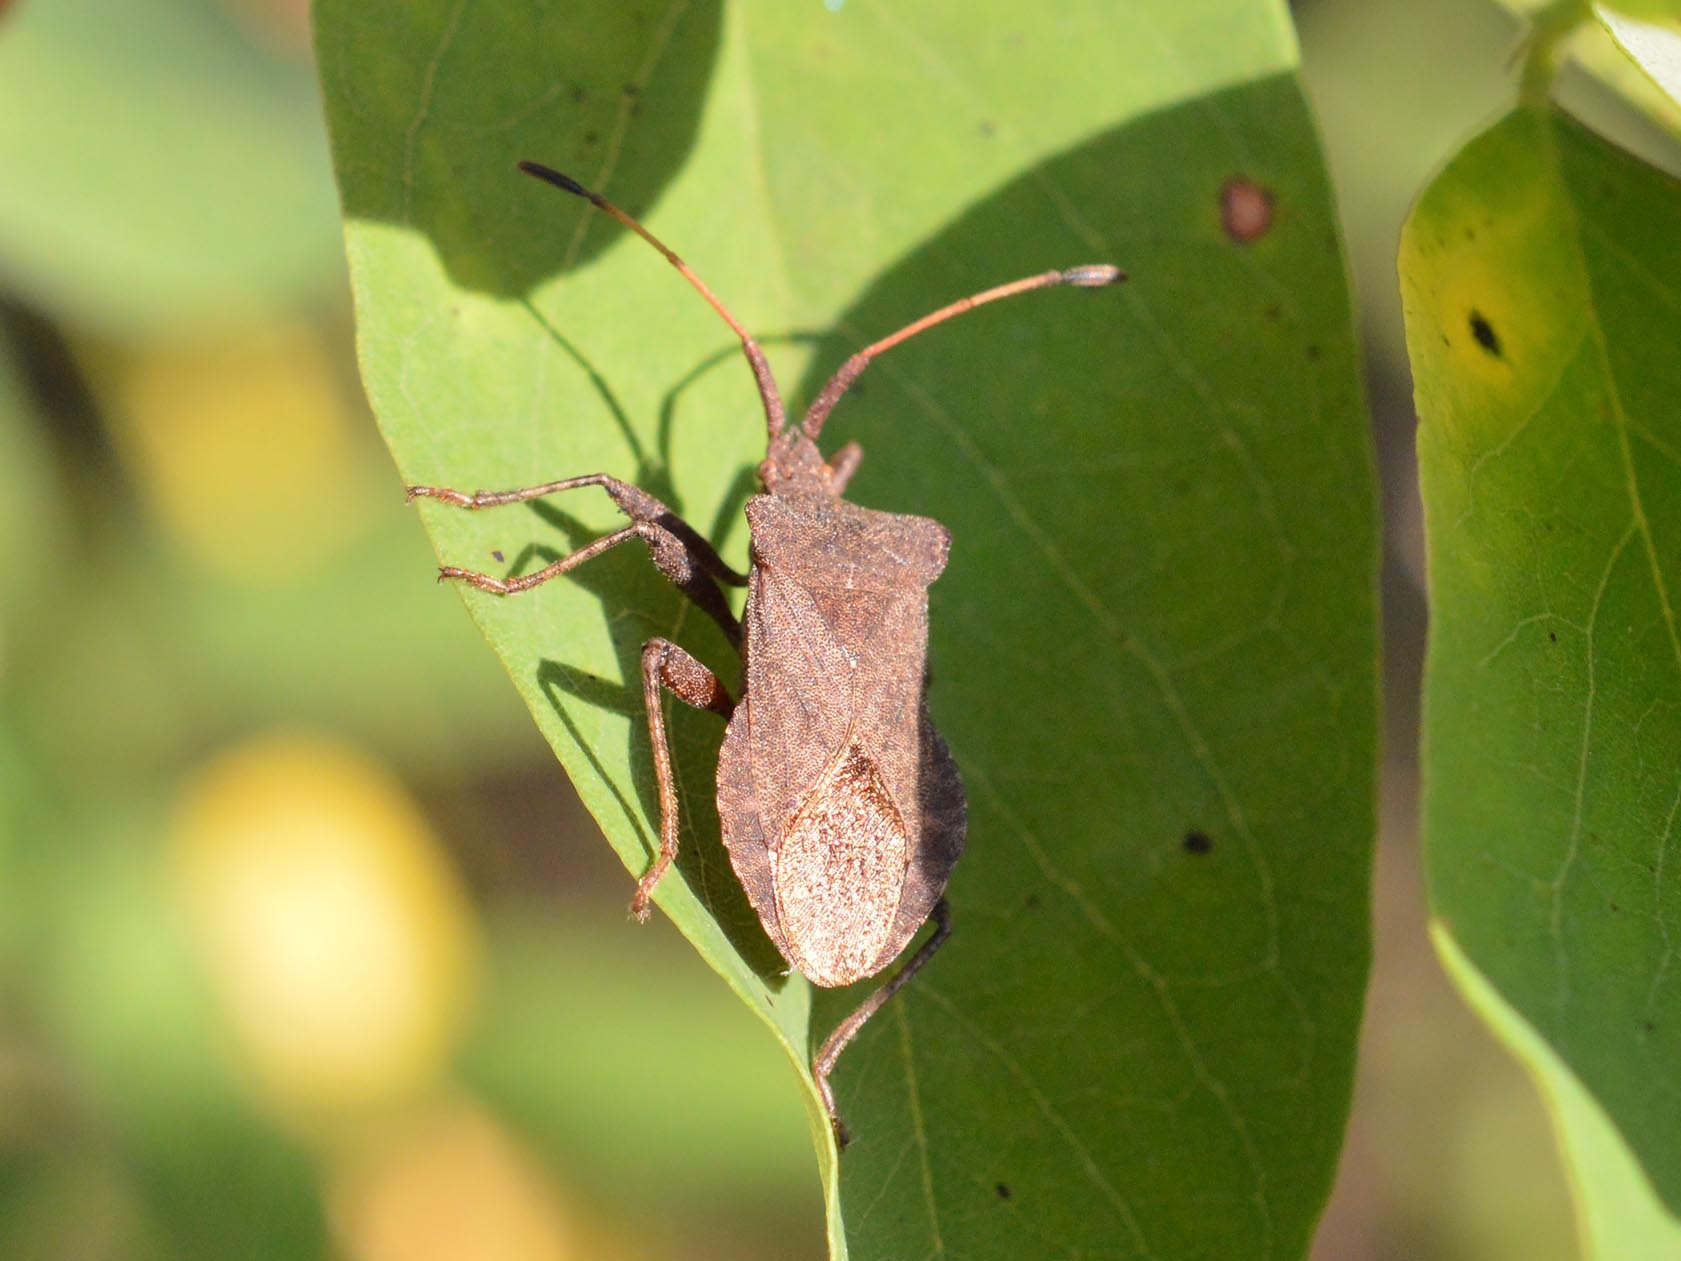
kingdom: Animalia
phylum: Arthropoda
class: Insecta
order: Hemiptera
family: Coreidae
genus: Coreus
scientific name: Coreus marginatus
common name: Dock bug
